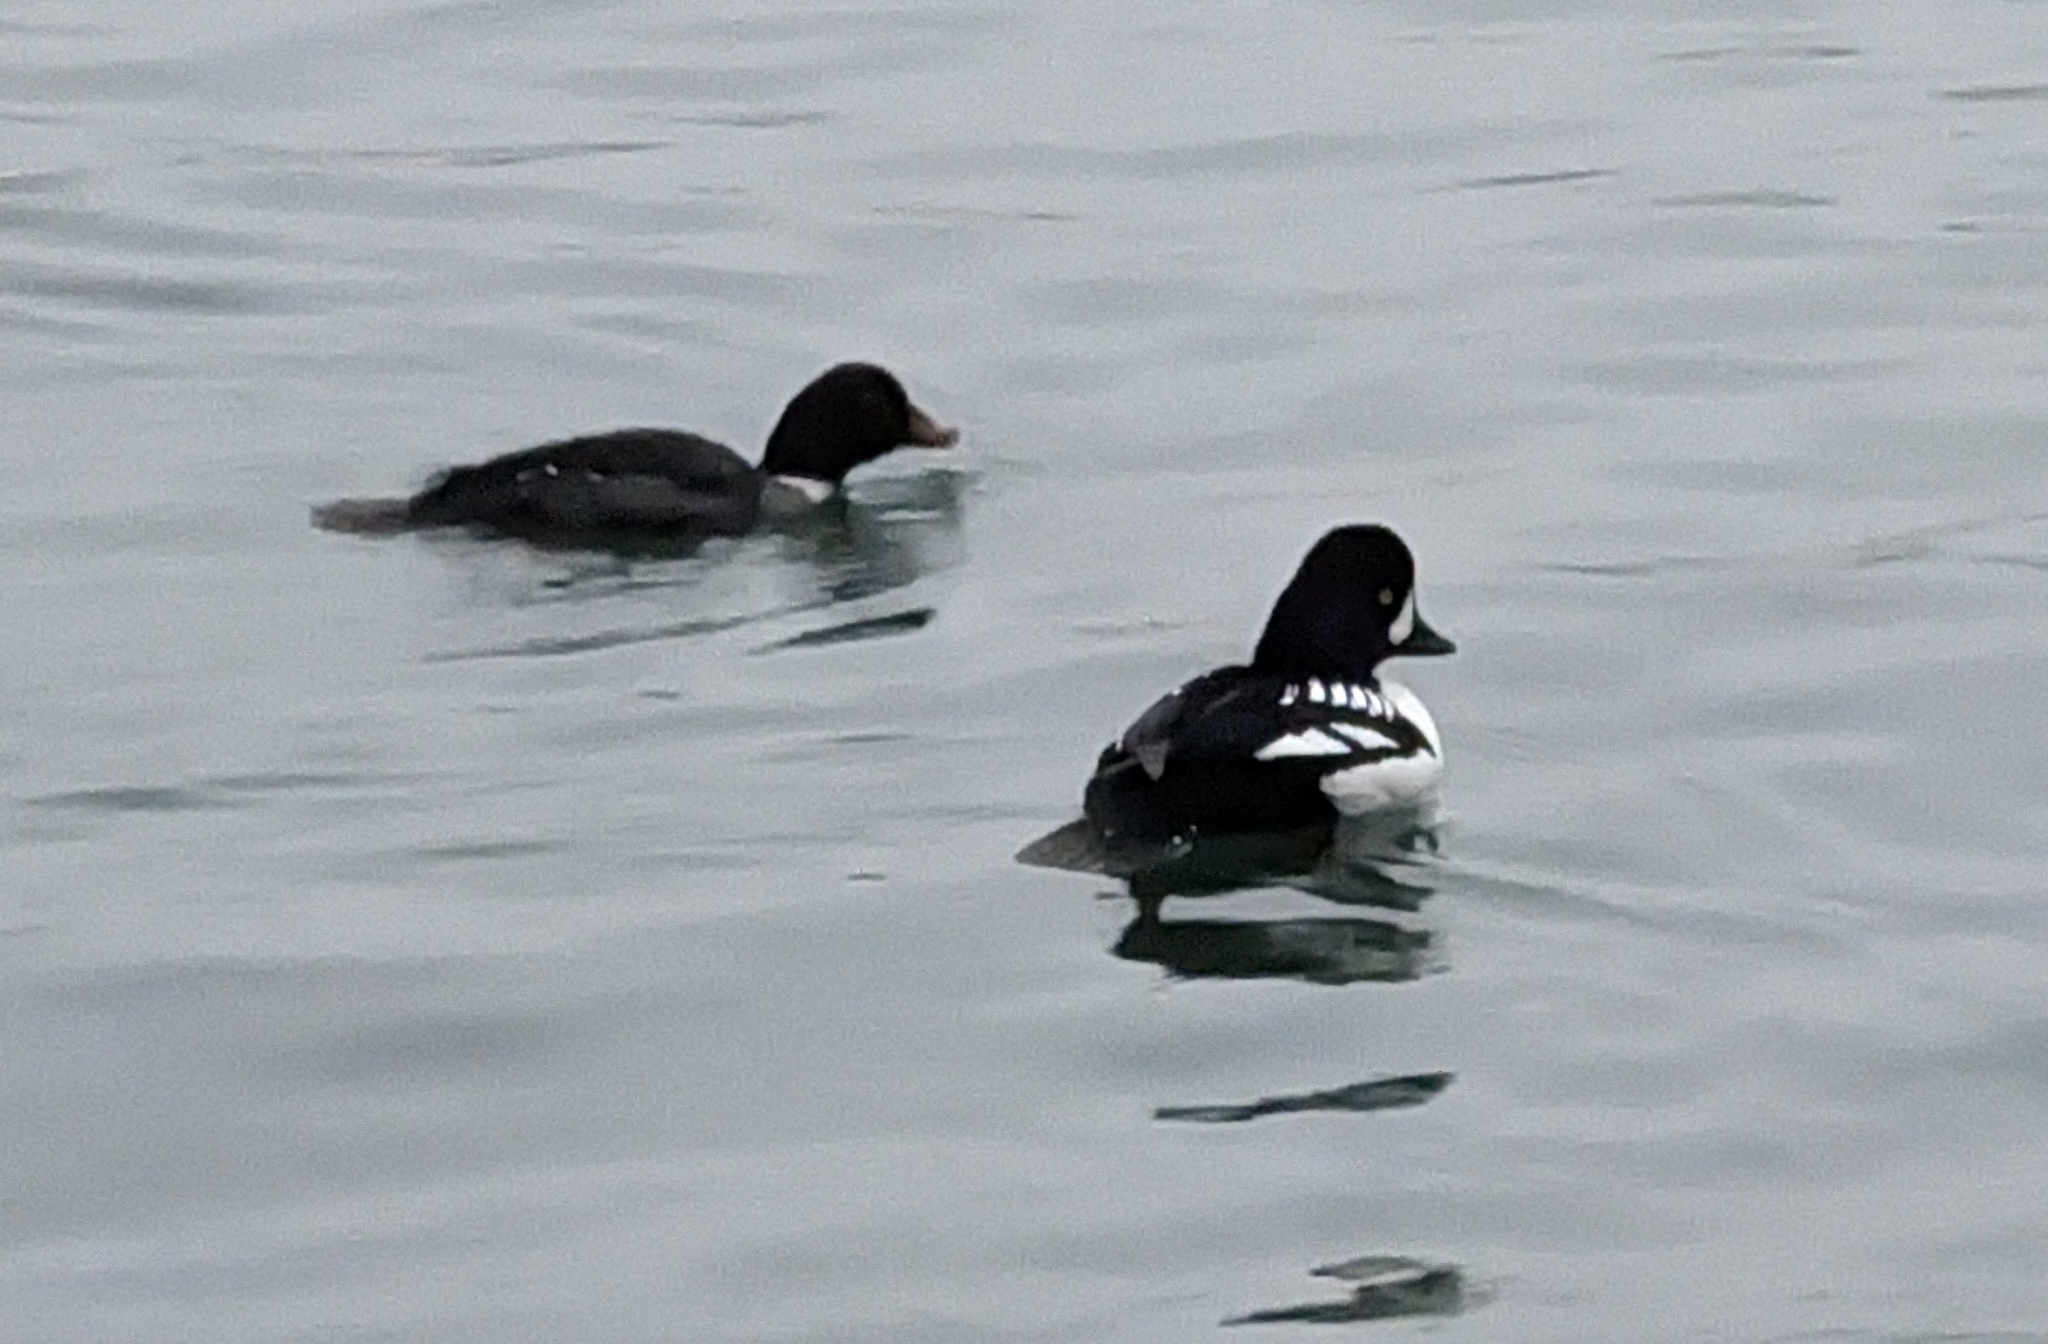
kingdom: Animalia
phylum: Chordata
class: Aves
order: Anseriformes
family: Anatidae
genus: Bucephala
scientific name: Bucephala islandica
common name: Barrow's goldeneye
